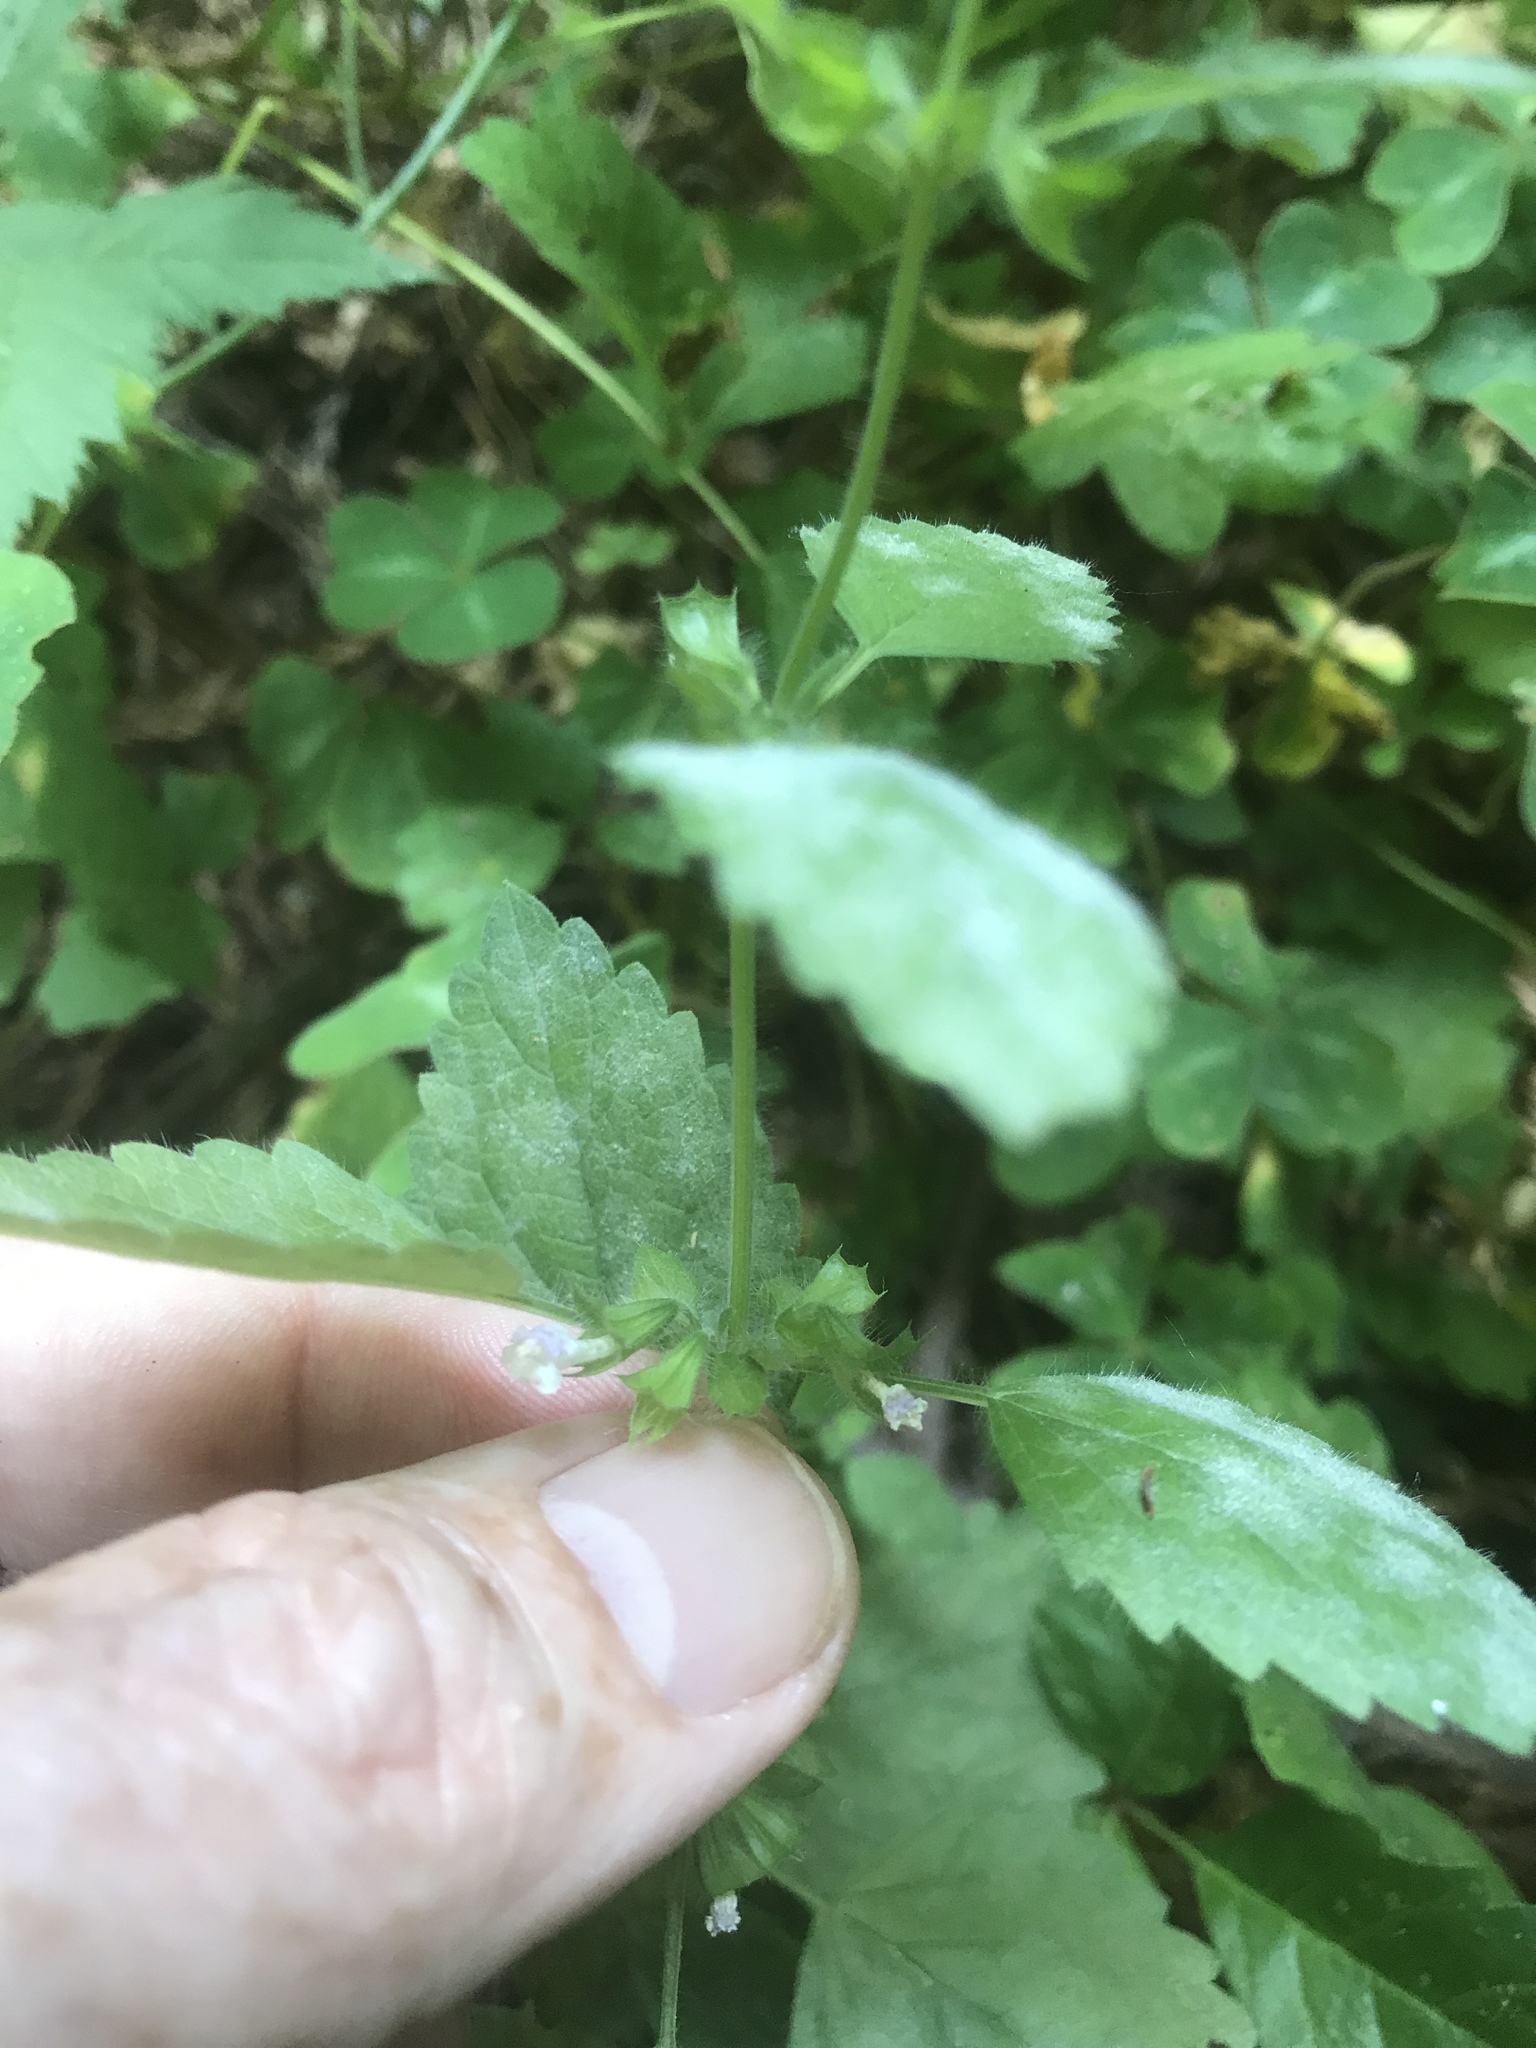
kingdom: Plantae
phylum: Tracheophyta
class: Magnoliopsida
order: Lamiales
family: Lamiaceae
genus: Melissa
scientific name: Melissa officinalis
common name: Balm
